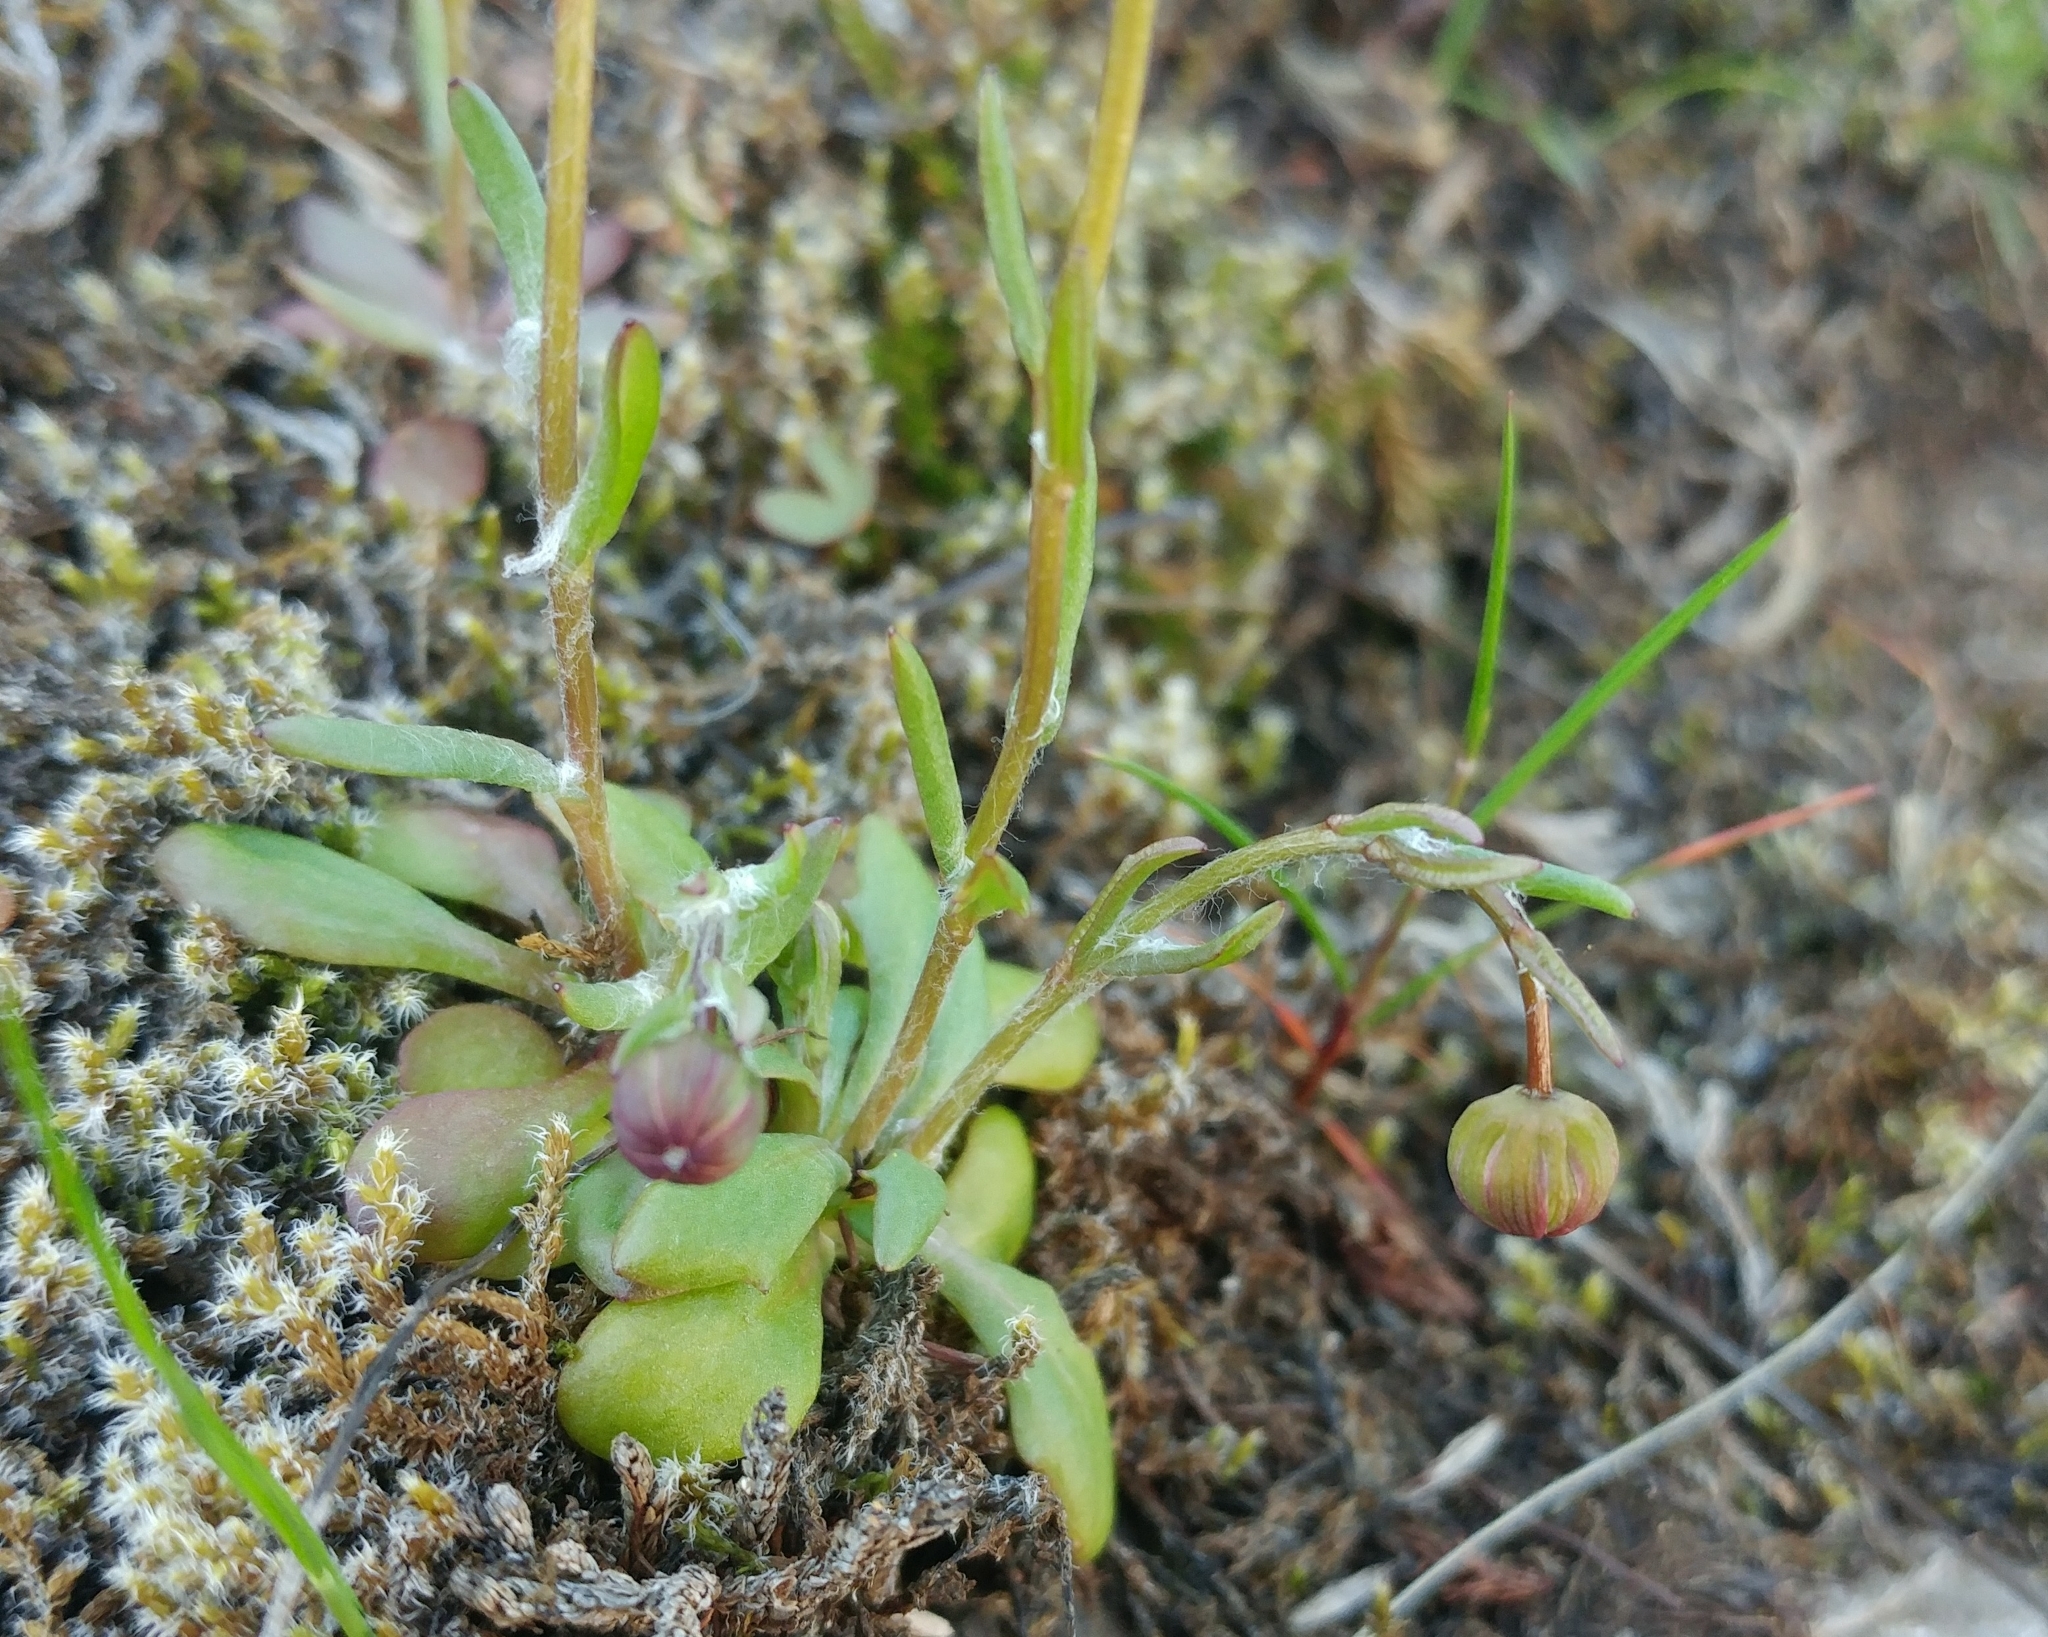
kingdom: Plantae
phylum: Tracheophyta
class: Magnoliopsida
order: Asterales
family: Asteraceae
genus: Crocidium
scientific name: Crocidium multicaule
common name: Common spring gold
